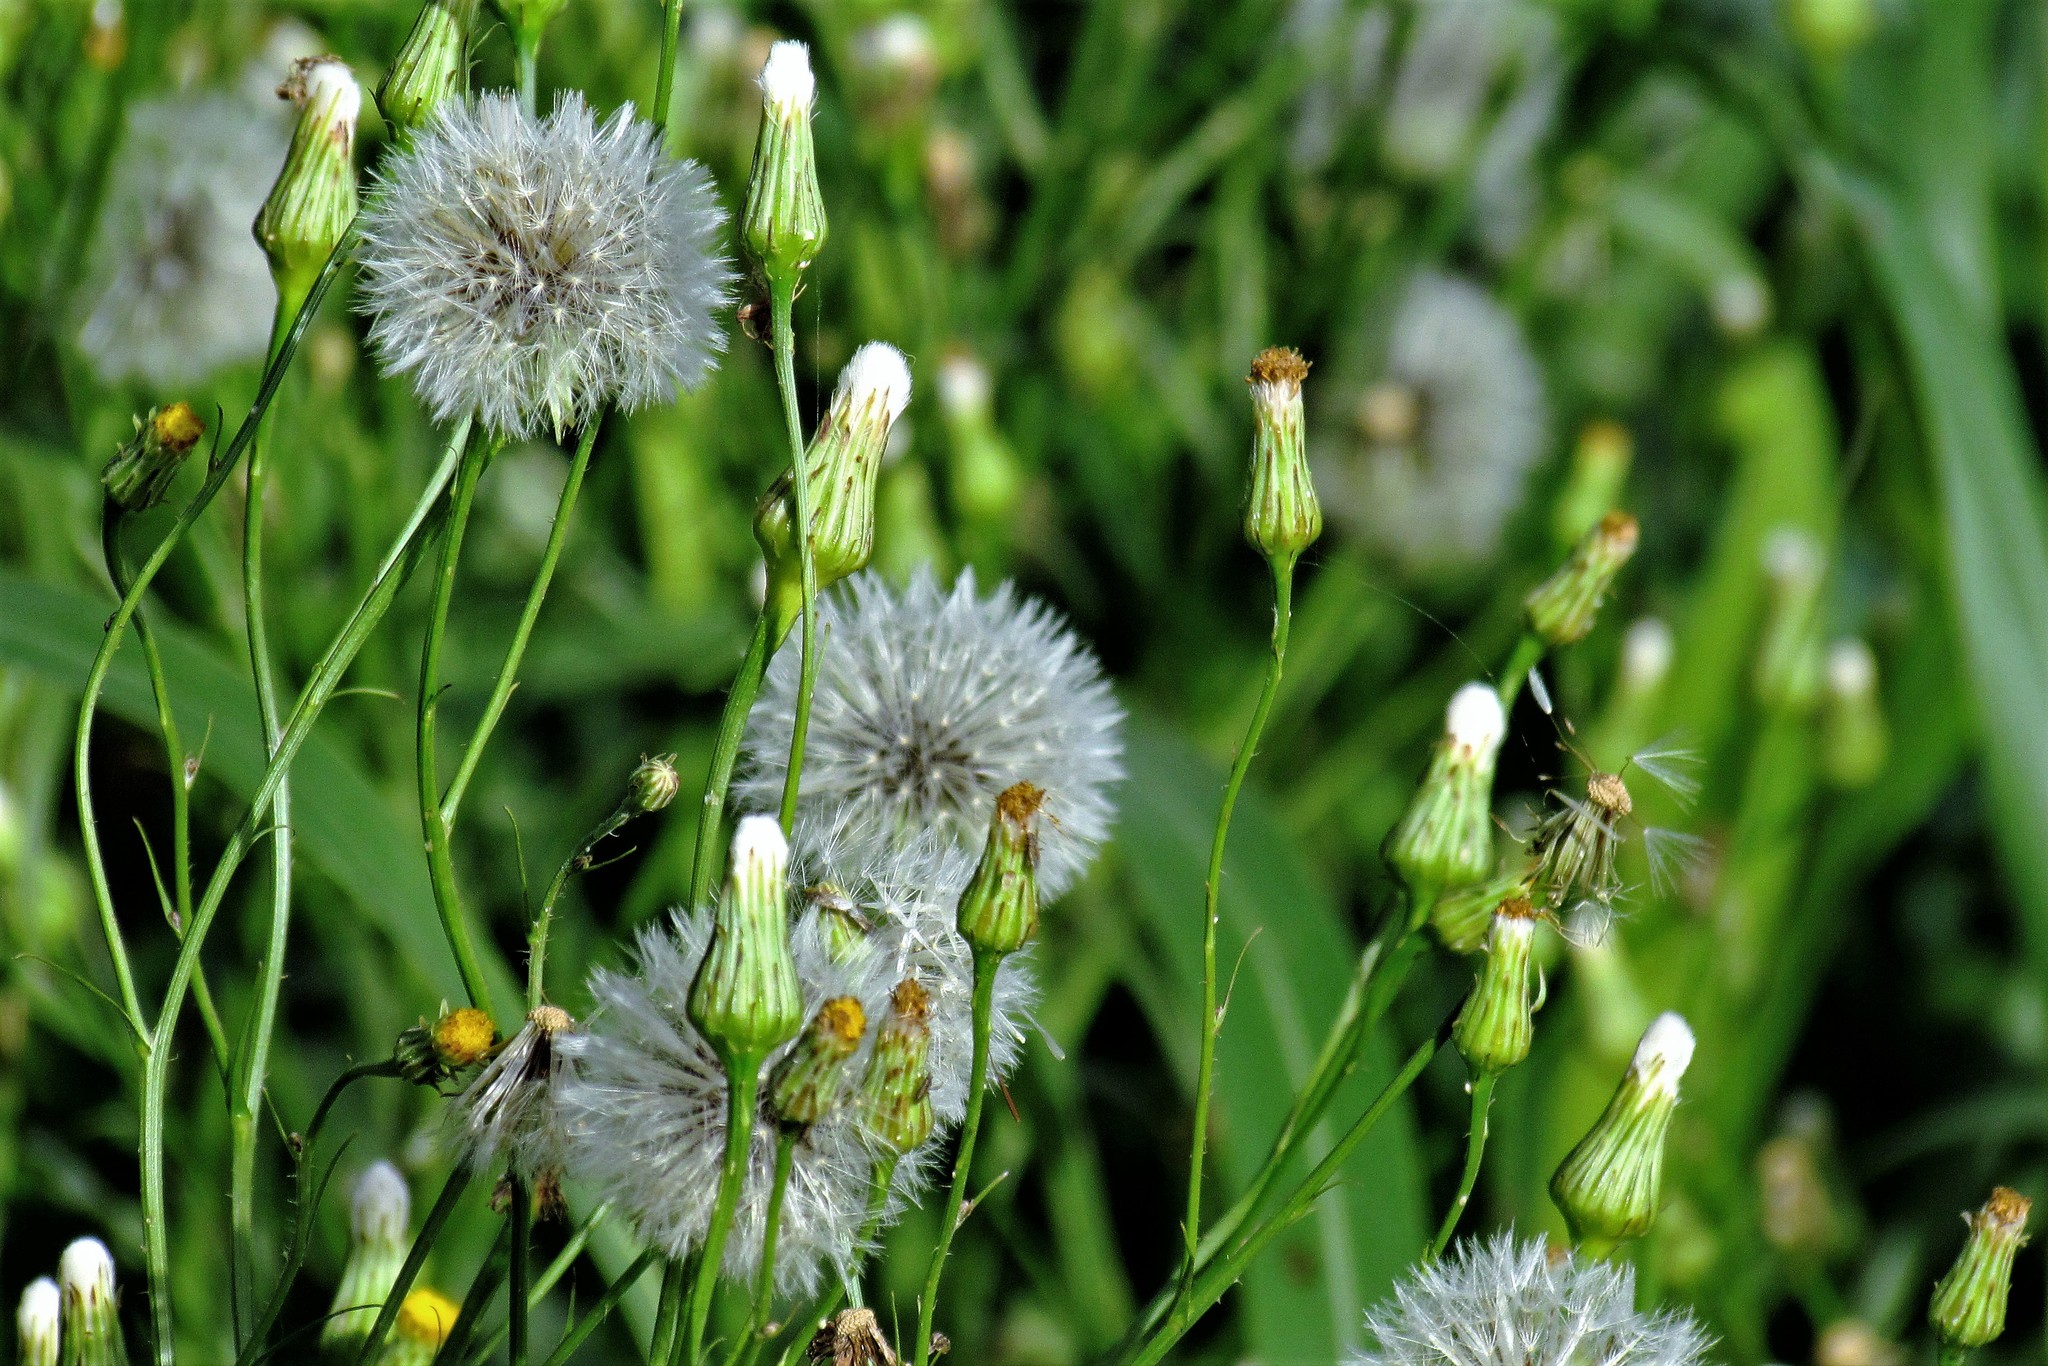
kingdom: Plantae
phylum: Tracheophyta
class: Magnoliopsida
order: Asterales
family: Asteraceae
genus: Hypochaeris
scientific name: Hypochaeris chillensis
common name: Brazilian cat's ear
